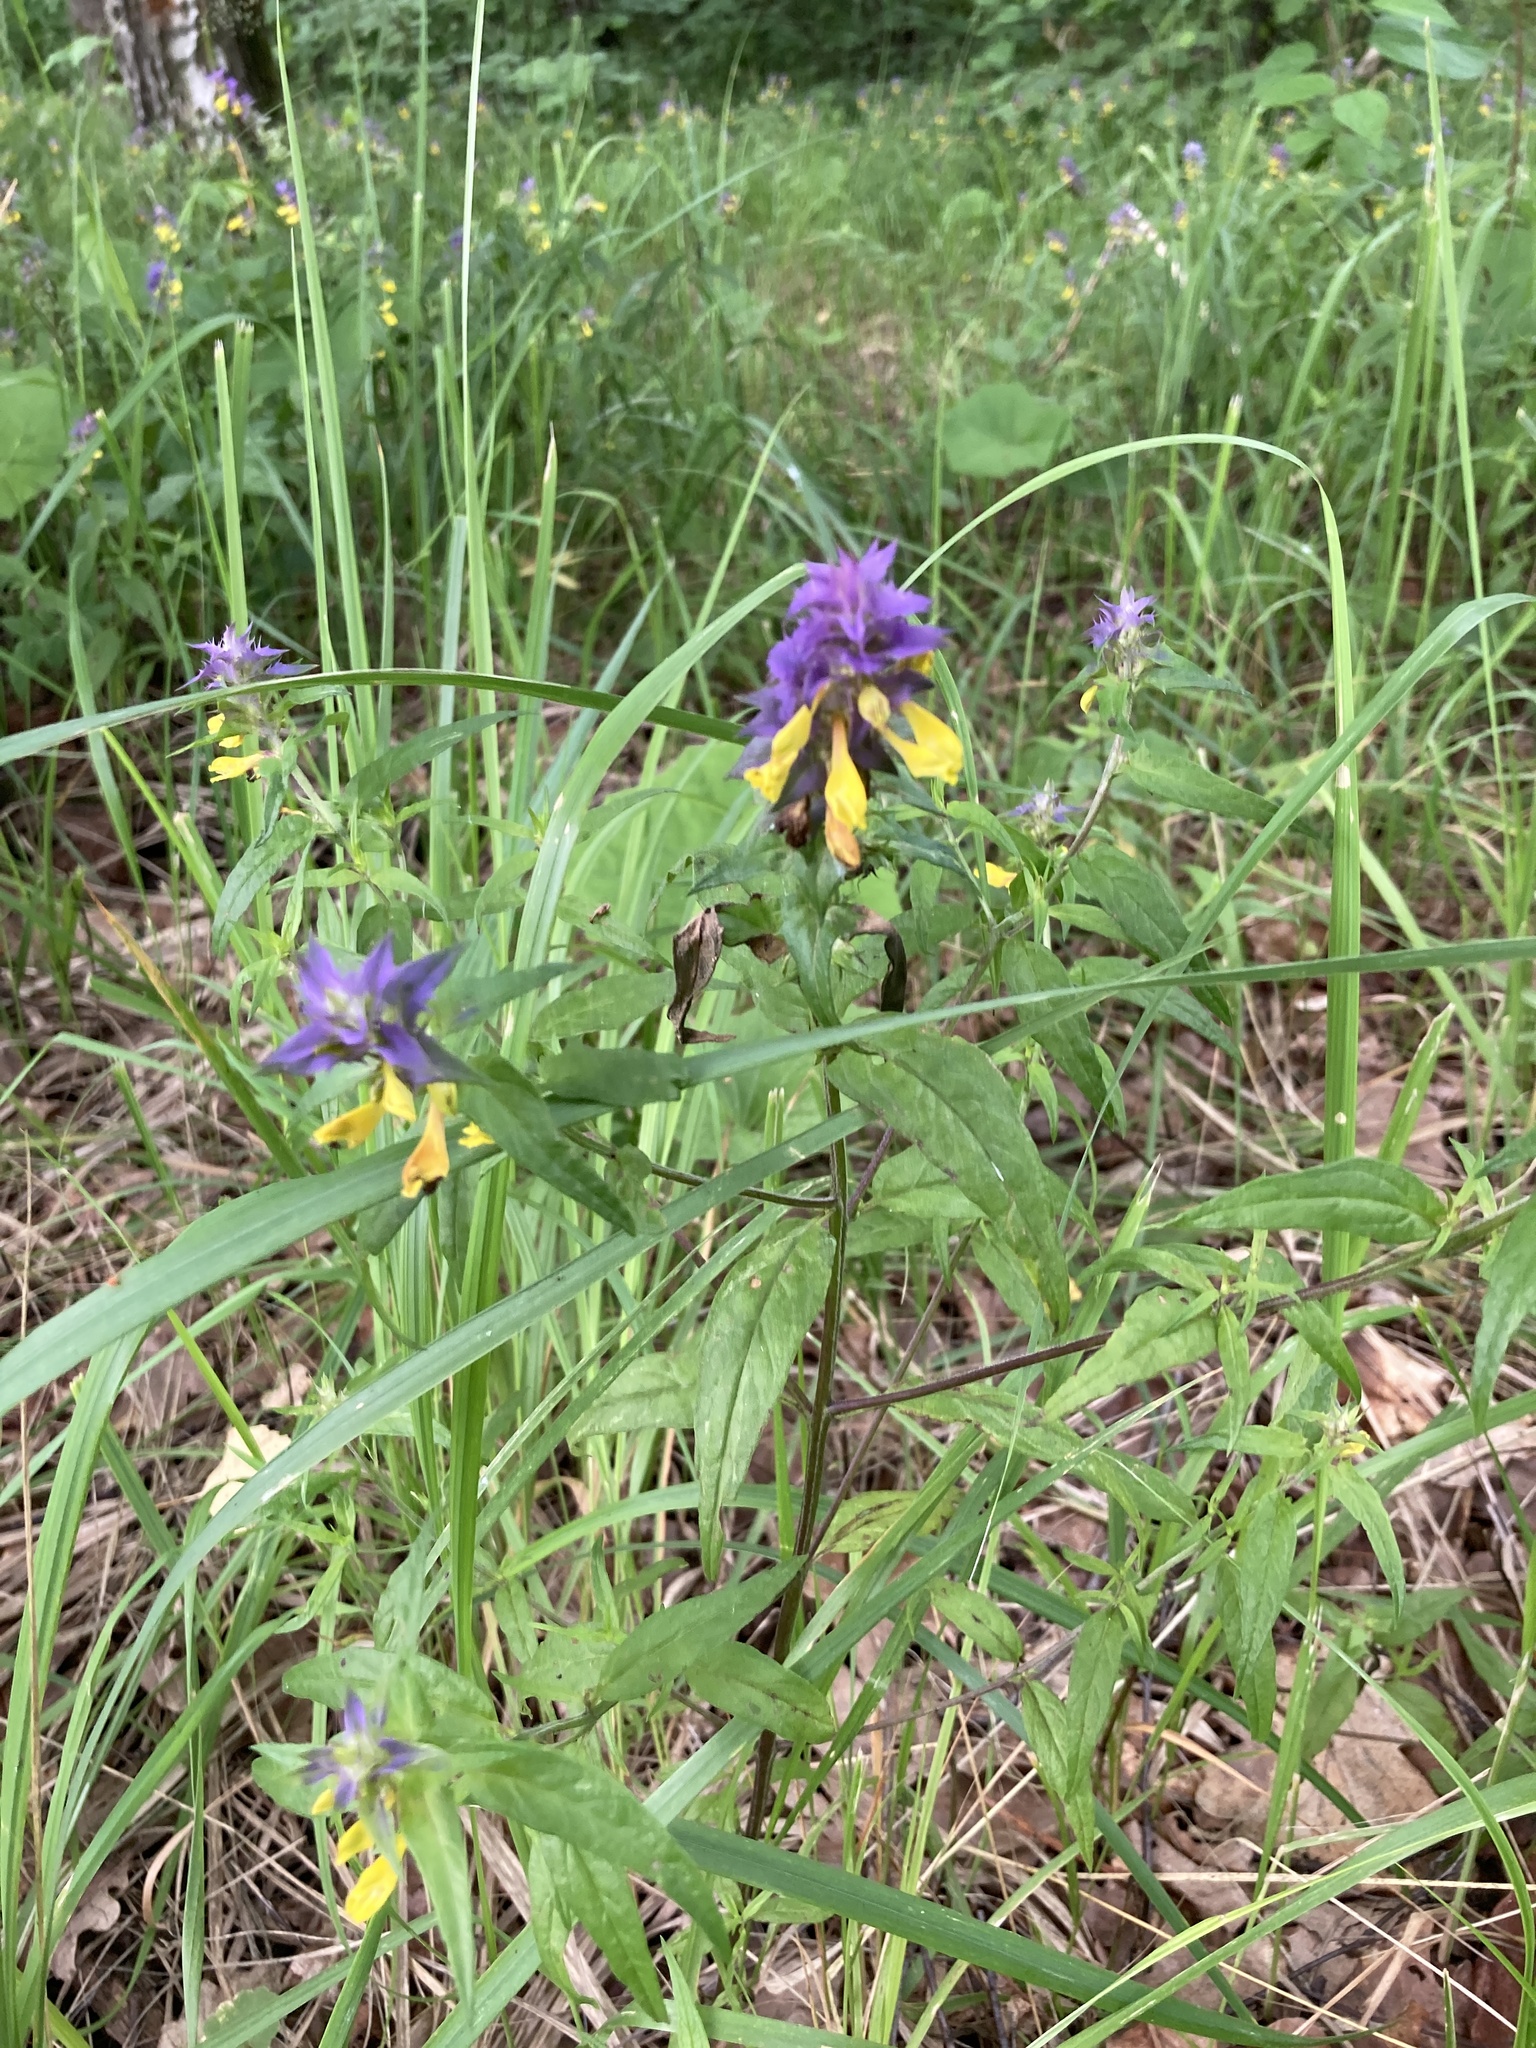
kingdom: Plantae
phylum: Tracheophyta
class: Magnoliopsida
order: Lamiales
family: Orobanchaceae
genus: Melampyrum
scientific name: Melampyrum nemorosum
